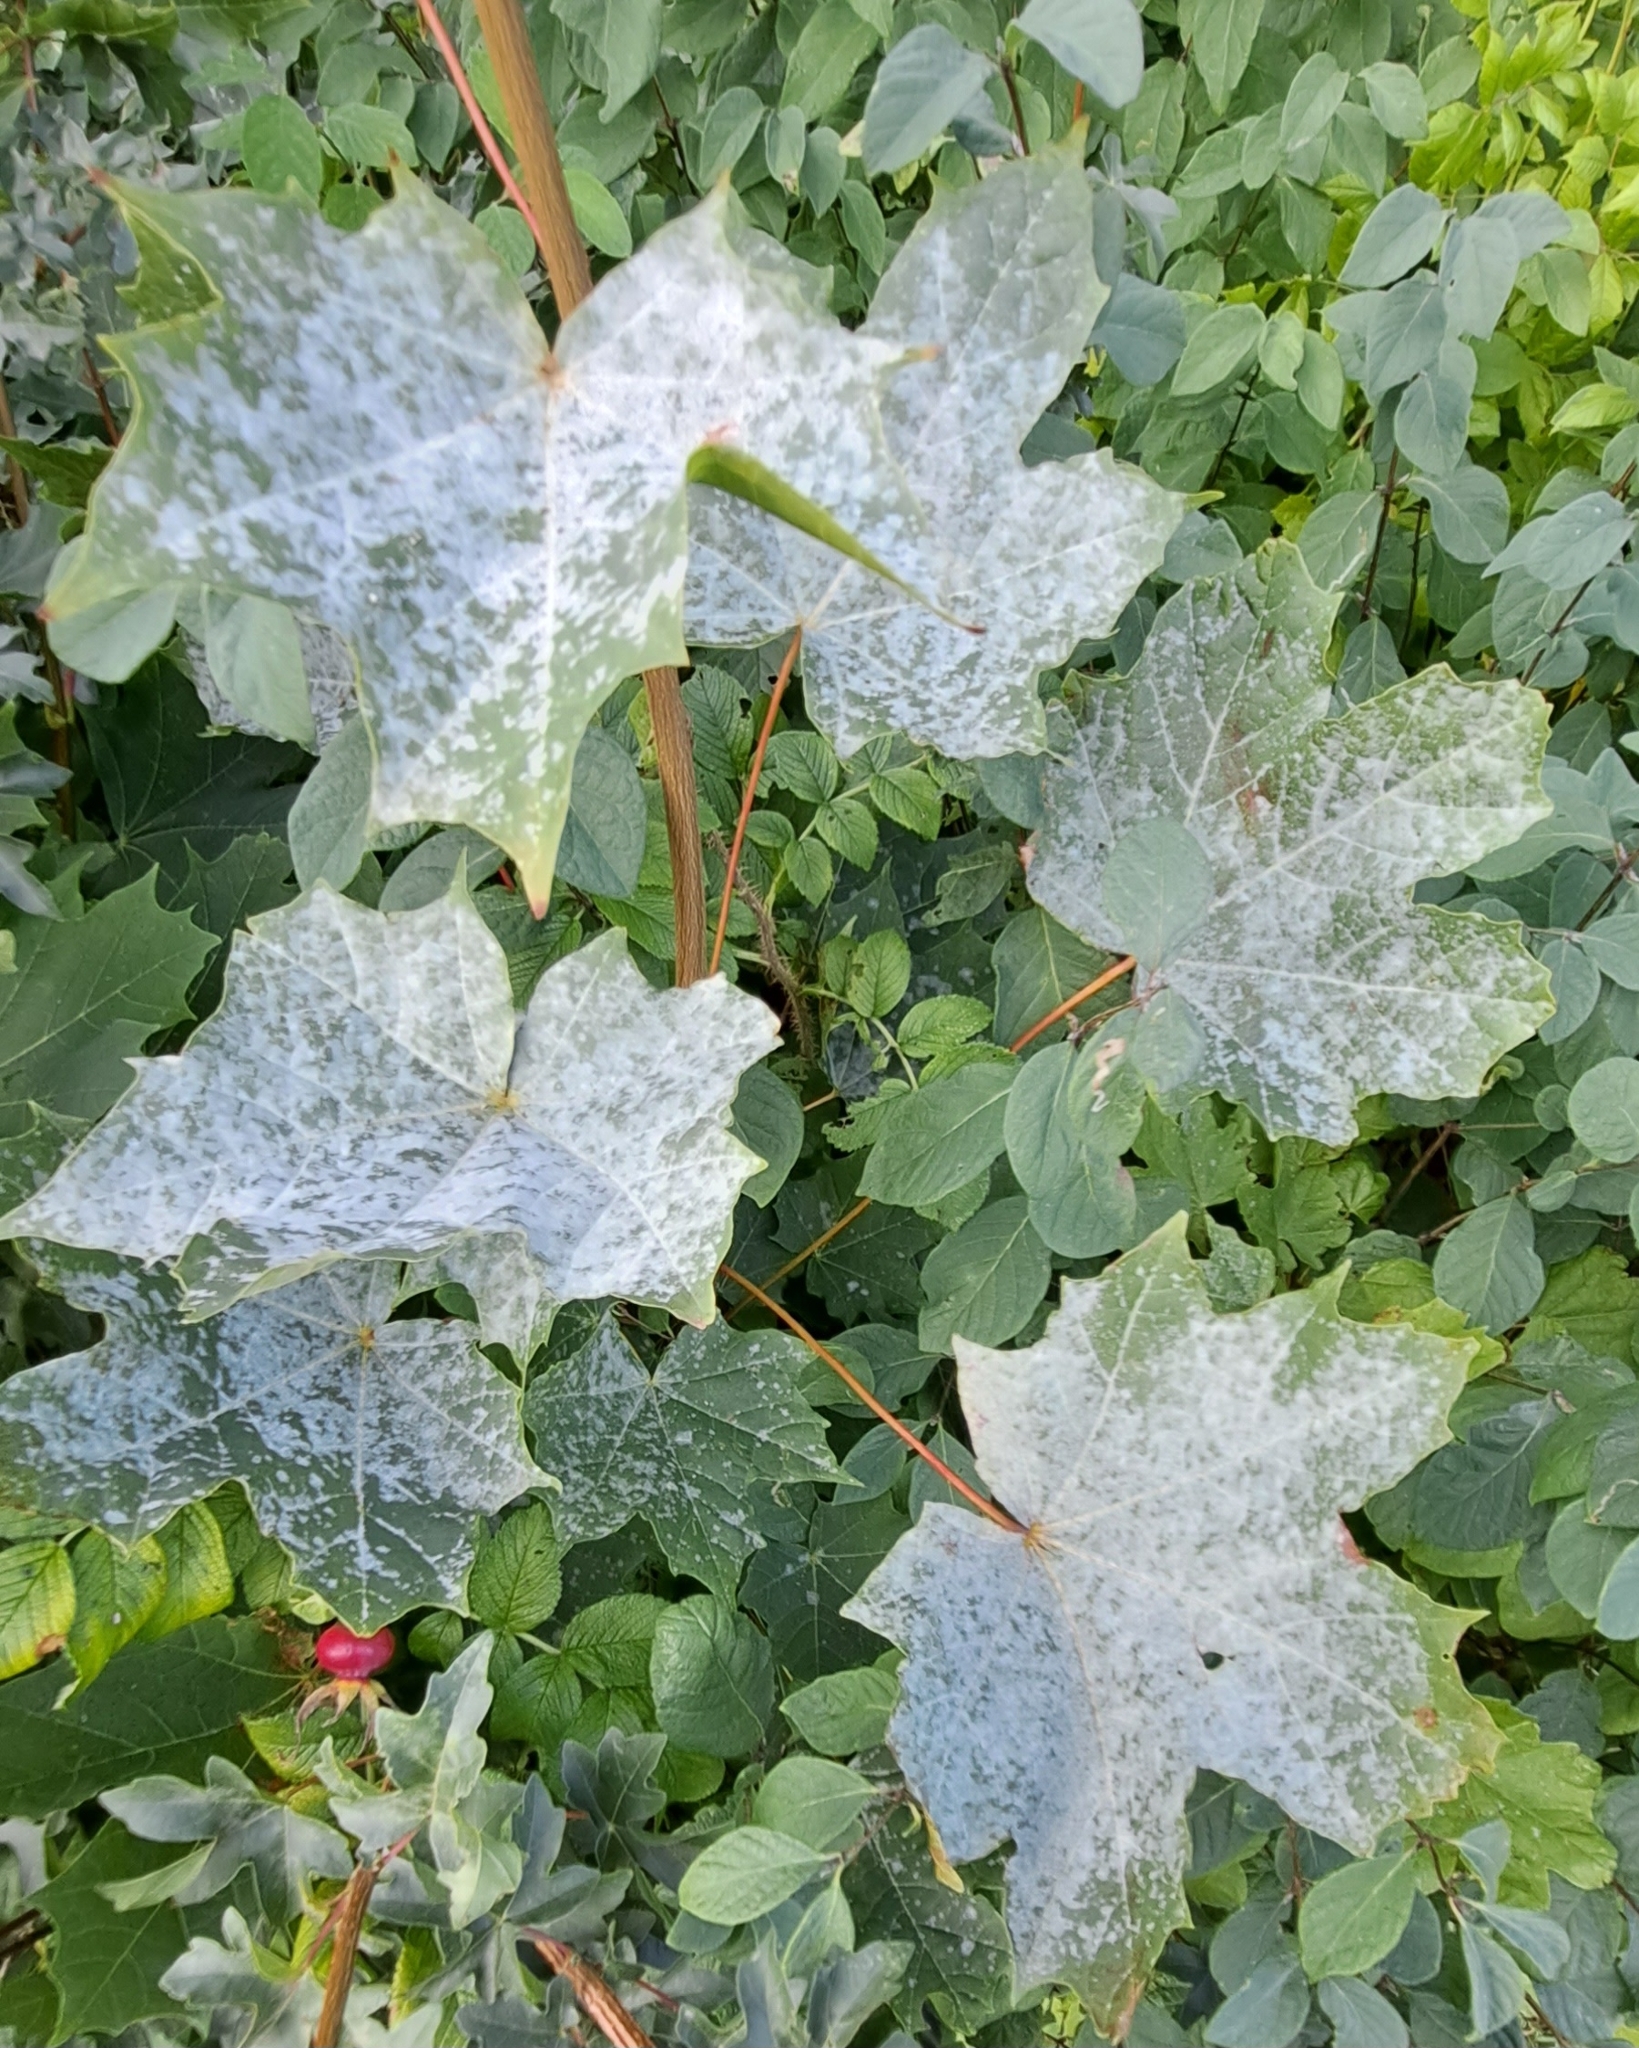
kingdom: Fungi
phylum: Ascomycota
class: Leotiomycetes
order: Helotiales
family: Erysiphaceae
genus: Sawadaea
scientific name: Sawadaea tulasnei
